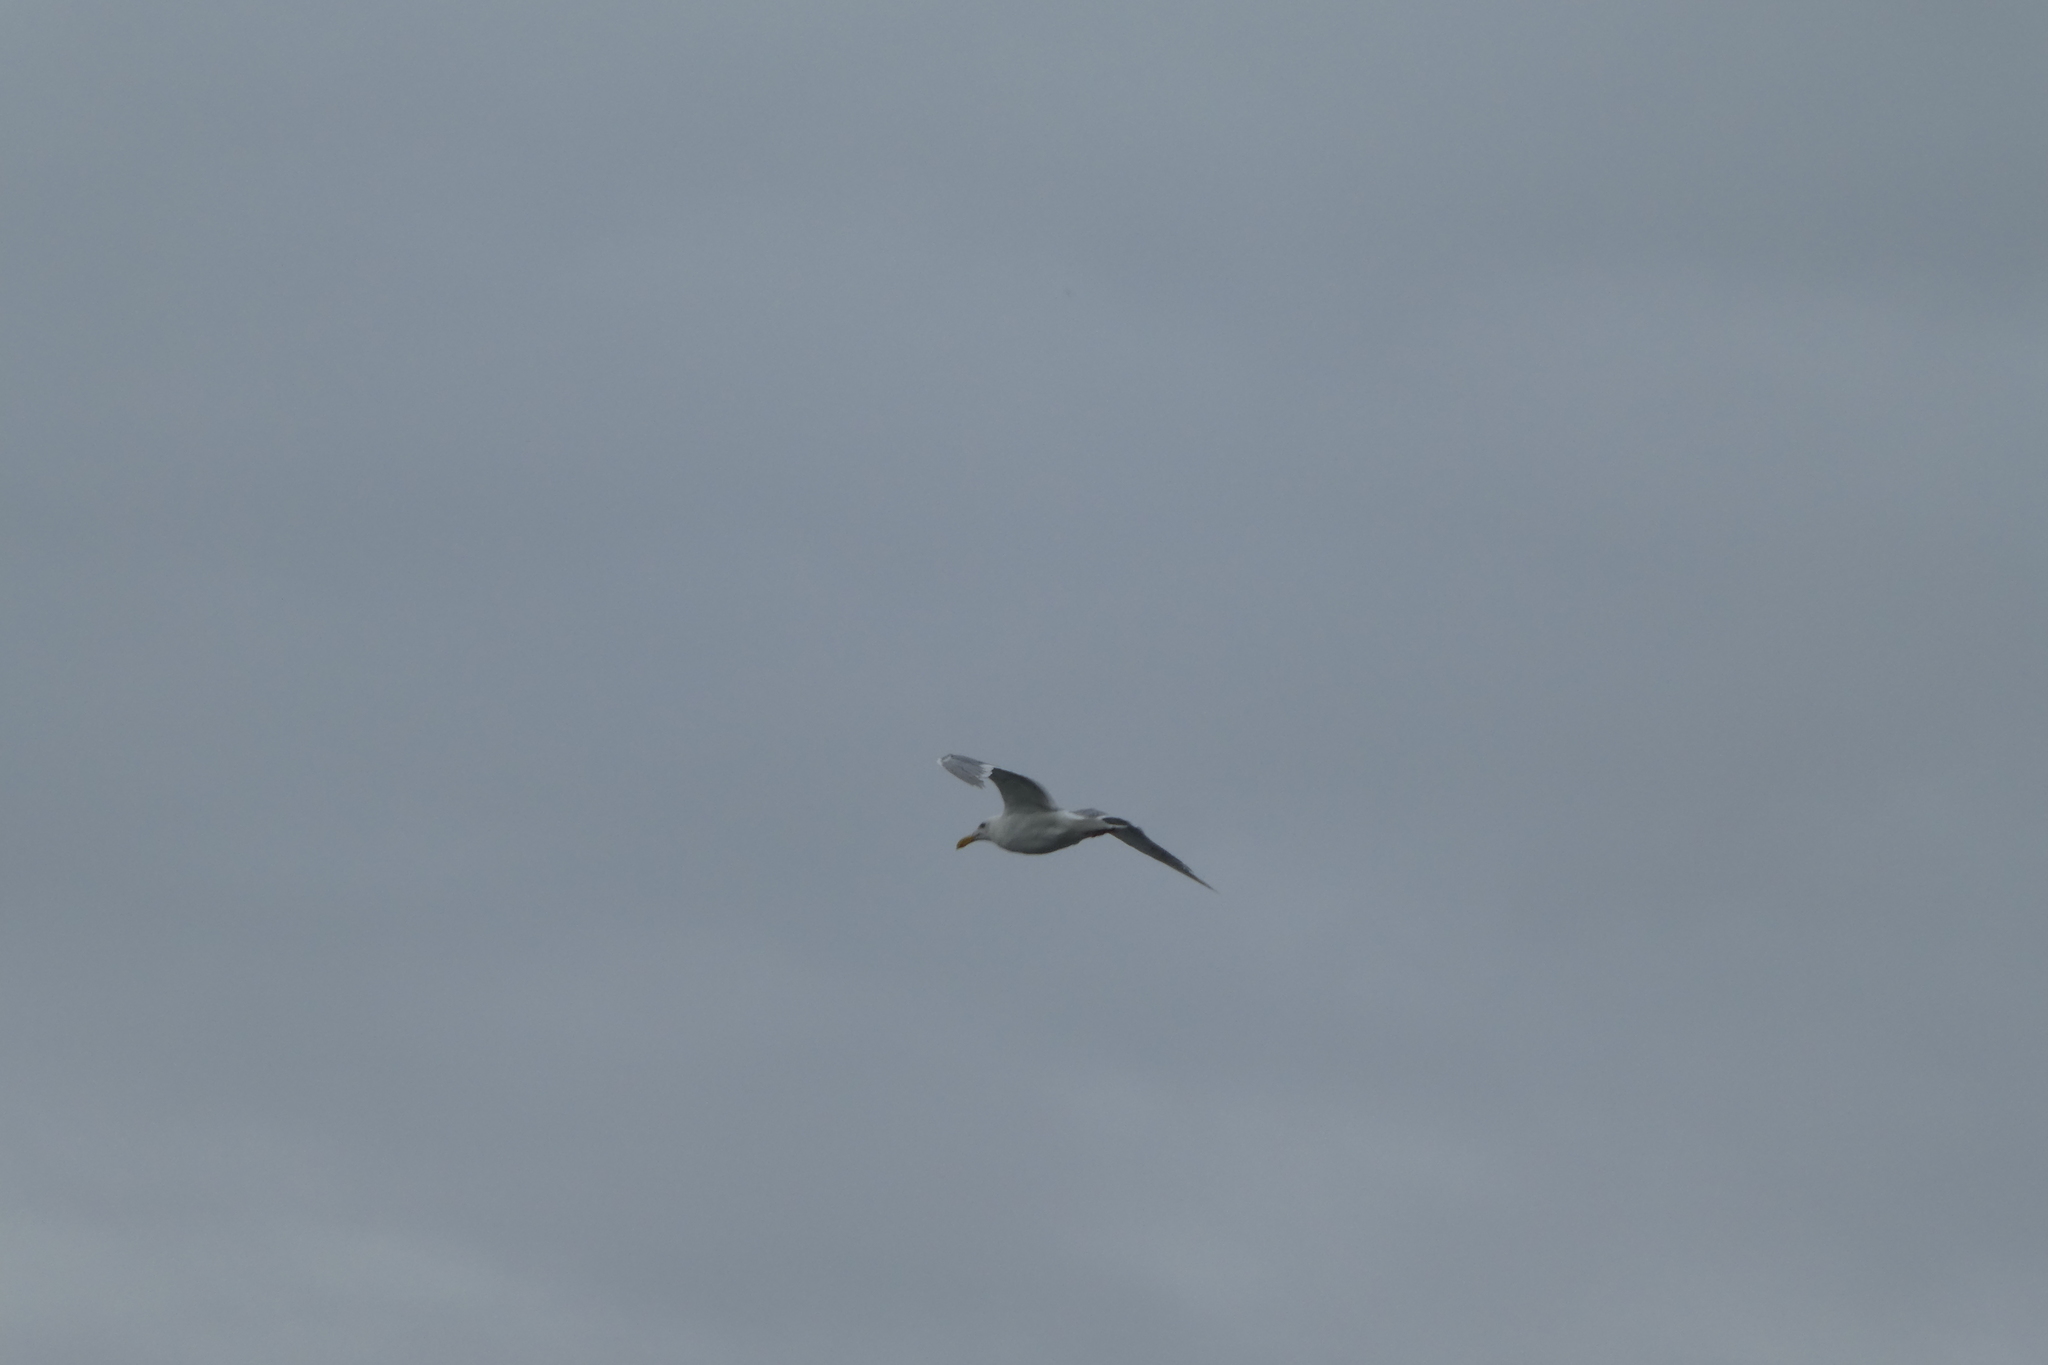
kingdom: Animalia
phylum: Chordata
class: Aves
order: Charadriiformes
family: Laridae
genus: Larus
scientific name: Larus glaucescens
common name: Glaucous-winged gull
